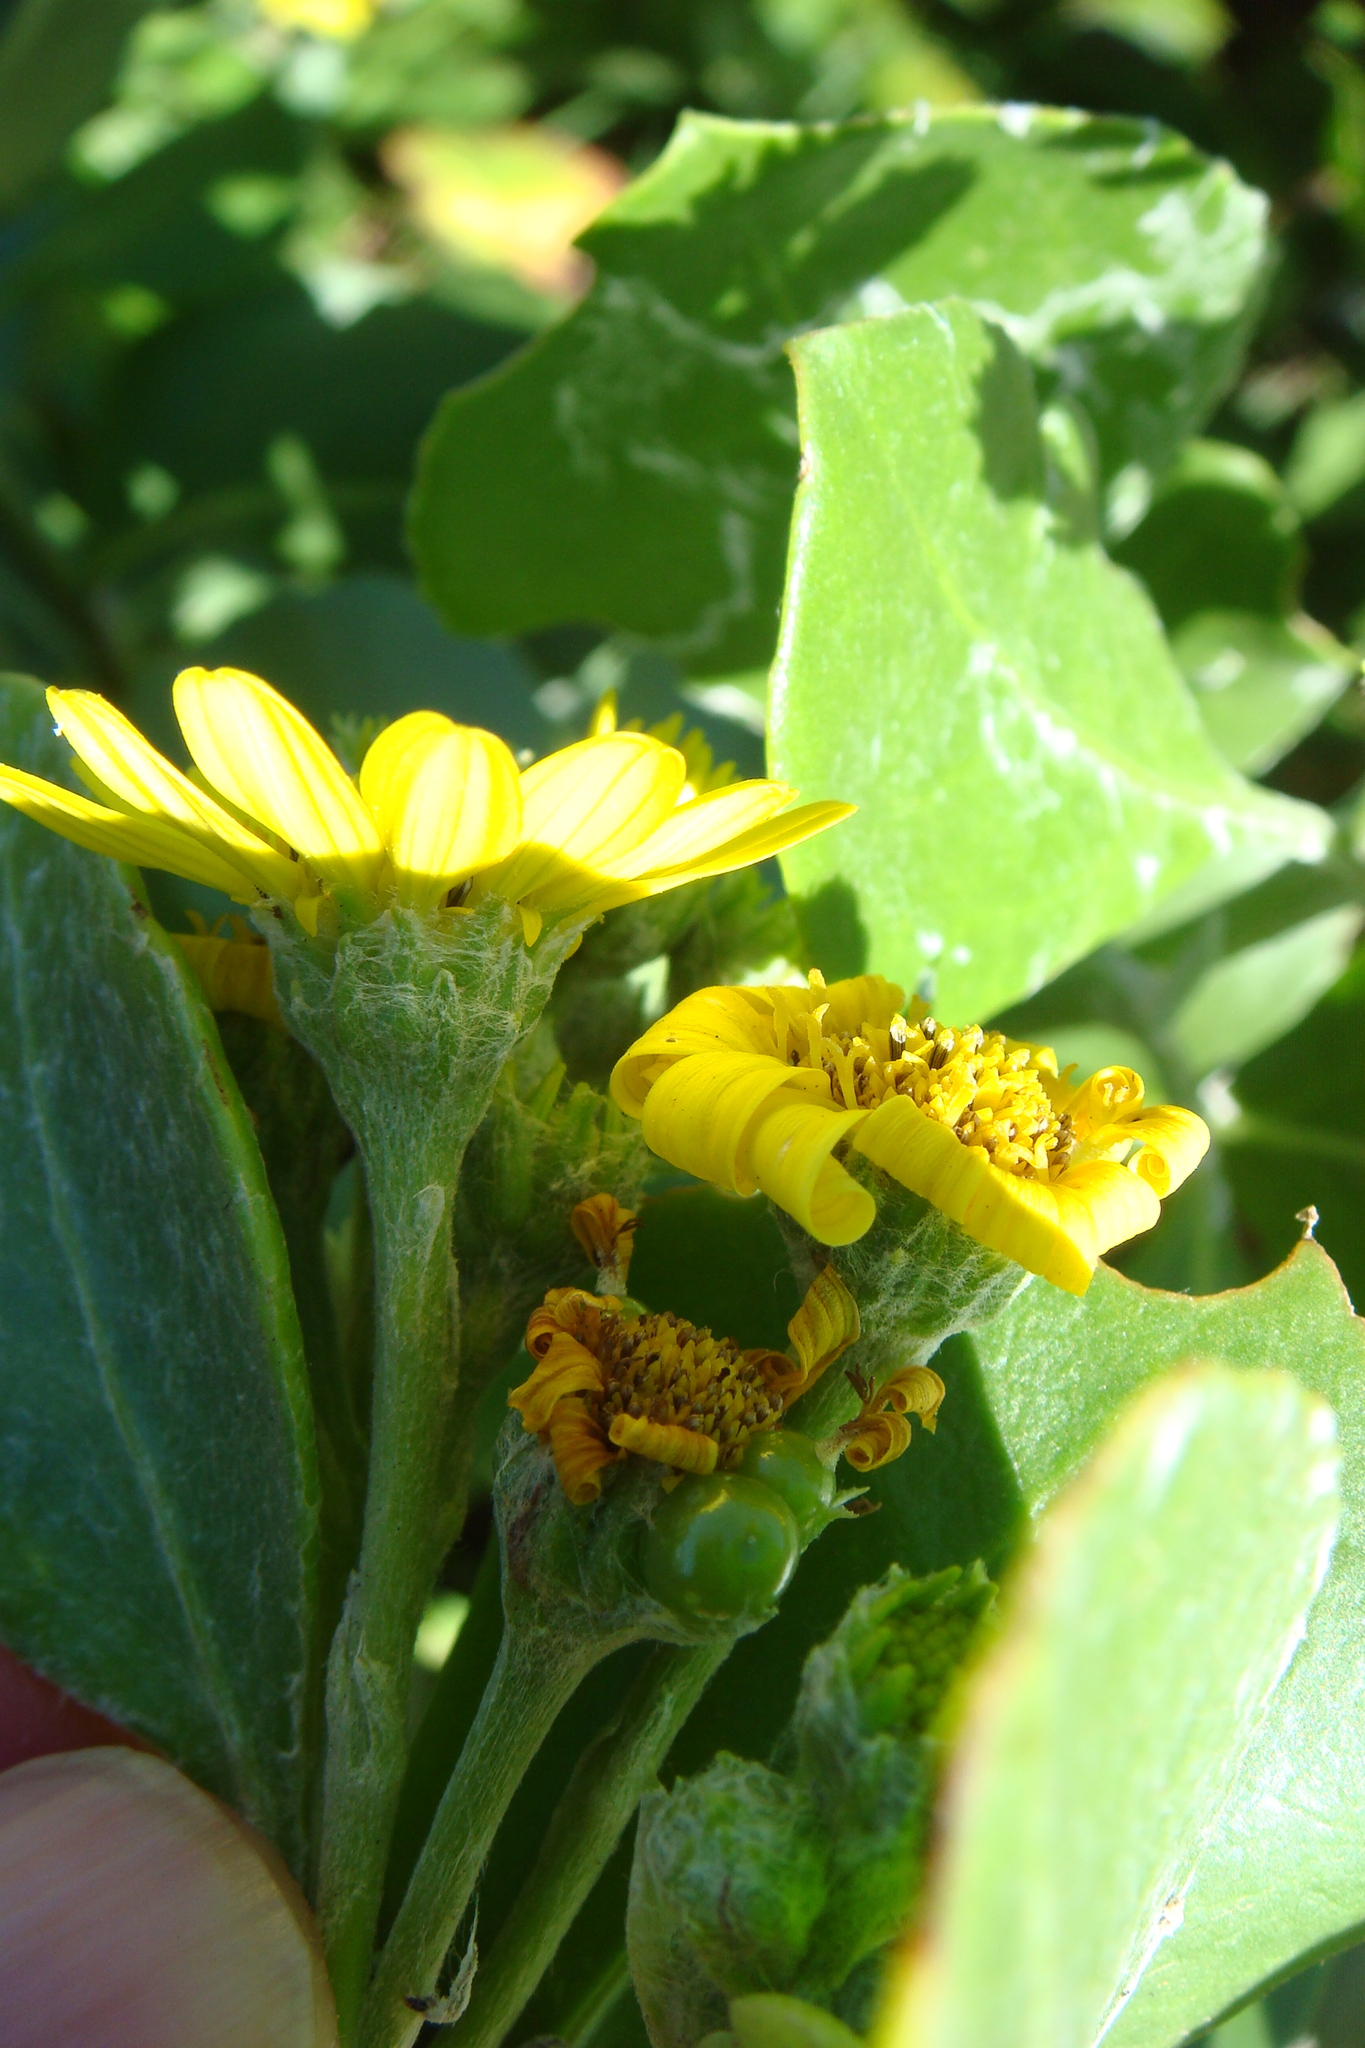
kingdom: Plantae
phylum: Tracheophyta
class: Magnoliopsida
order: Asterales
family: Asteraceae
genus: Osteospermum
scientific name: Osteospermum moniliferum
